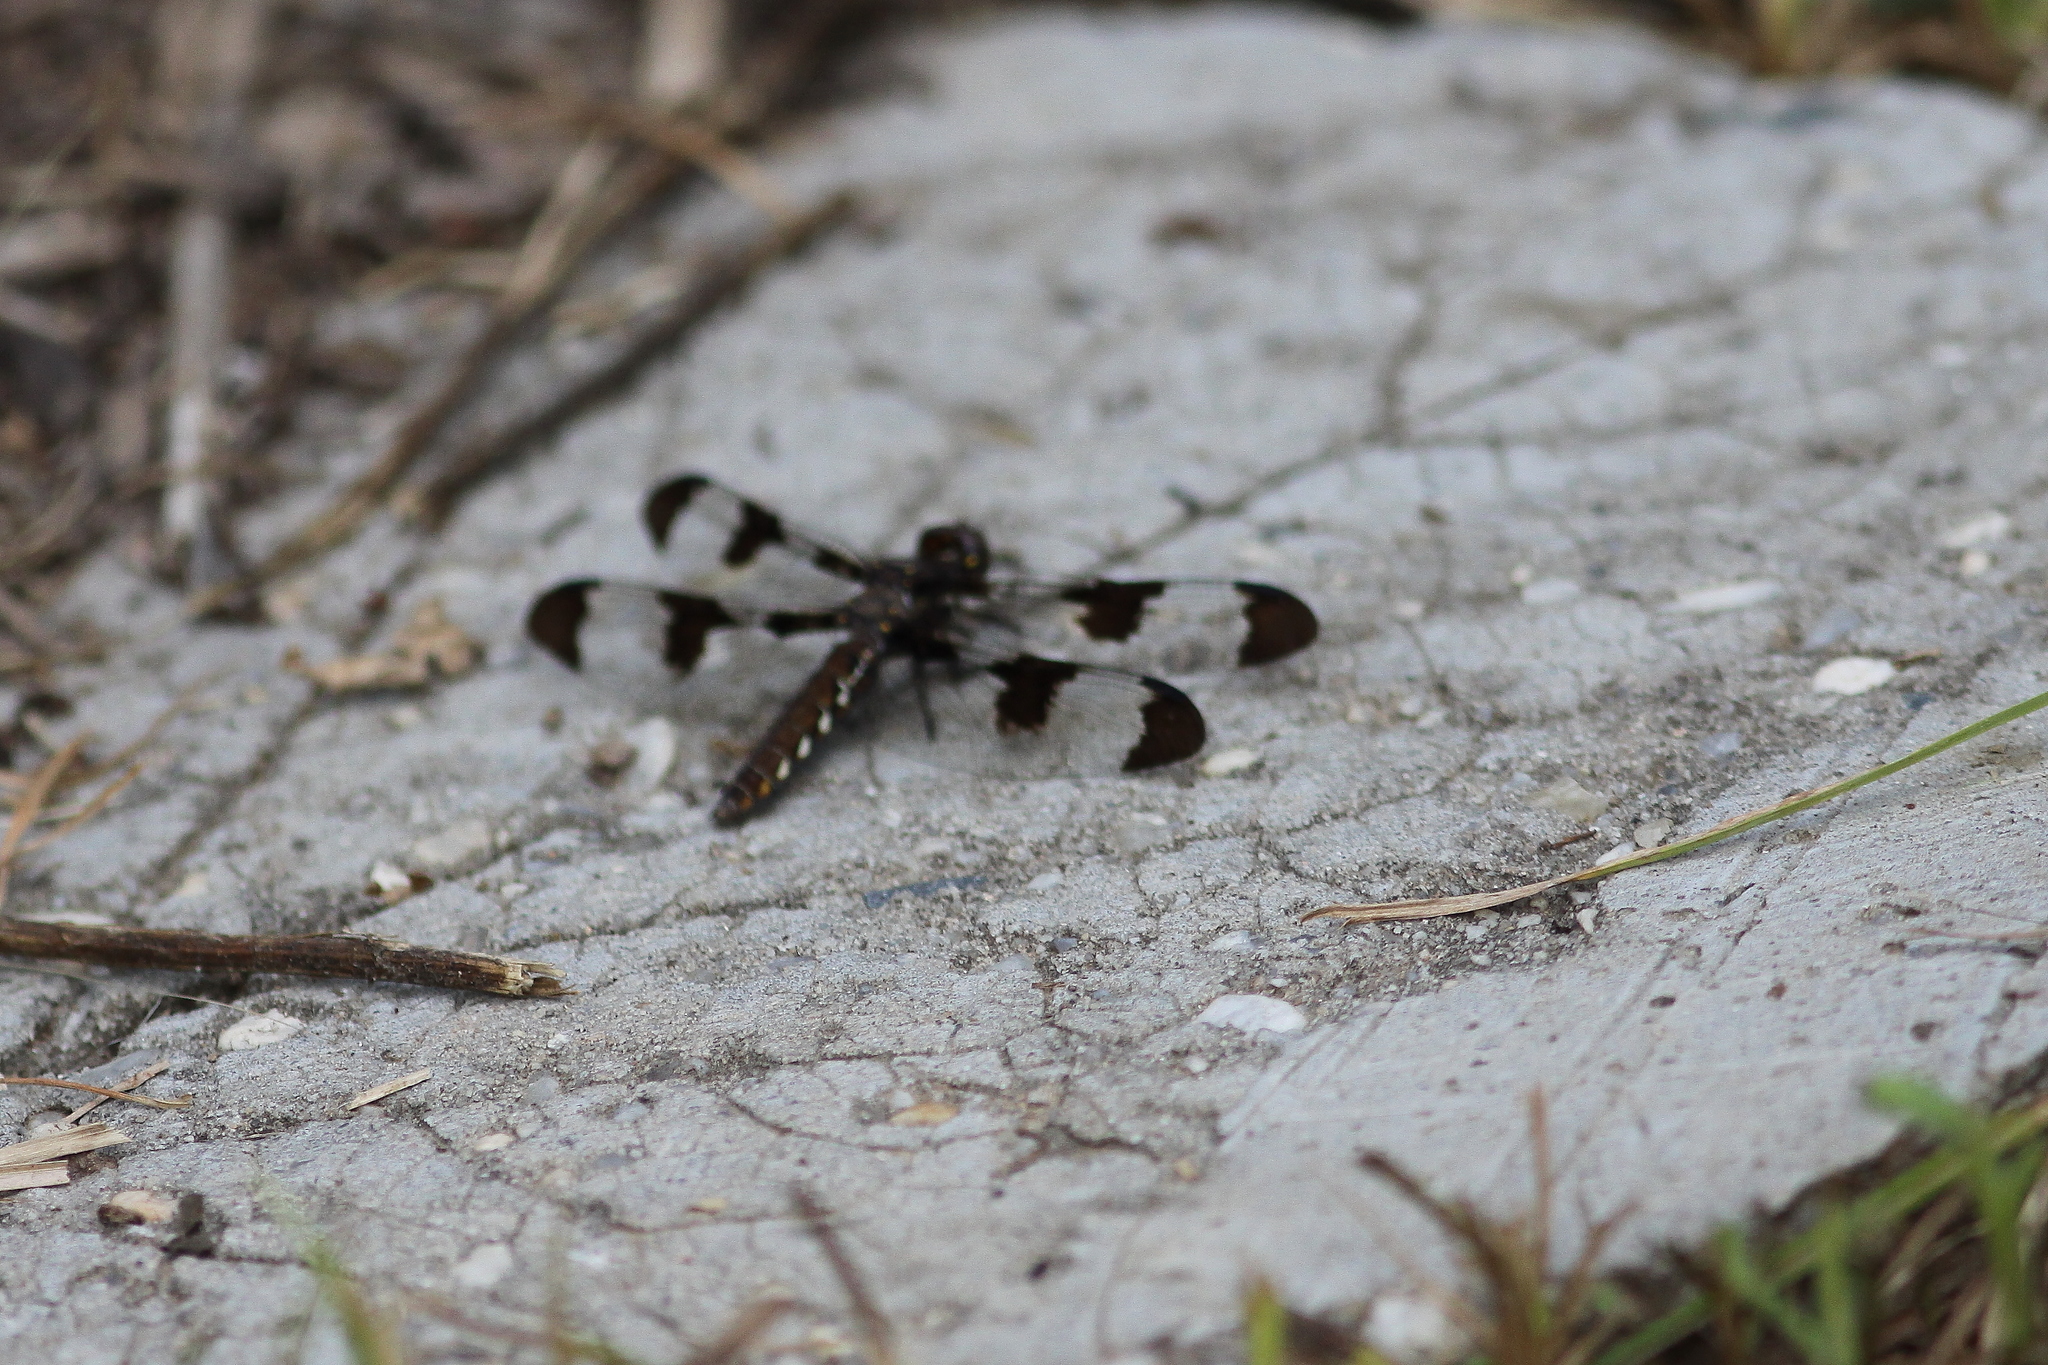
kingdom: Animalia
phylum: Arthropoda
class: Insecta
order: Odonata
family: Libellulidae
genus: Plathemis
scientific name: Plathemis lydia
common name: Common whitetail
